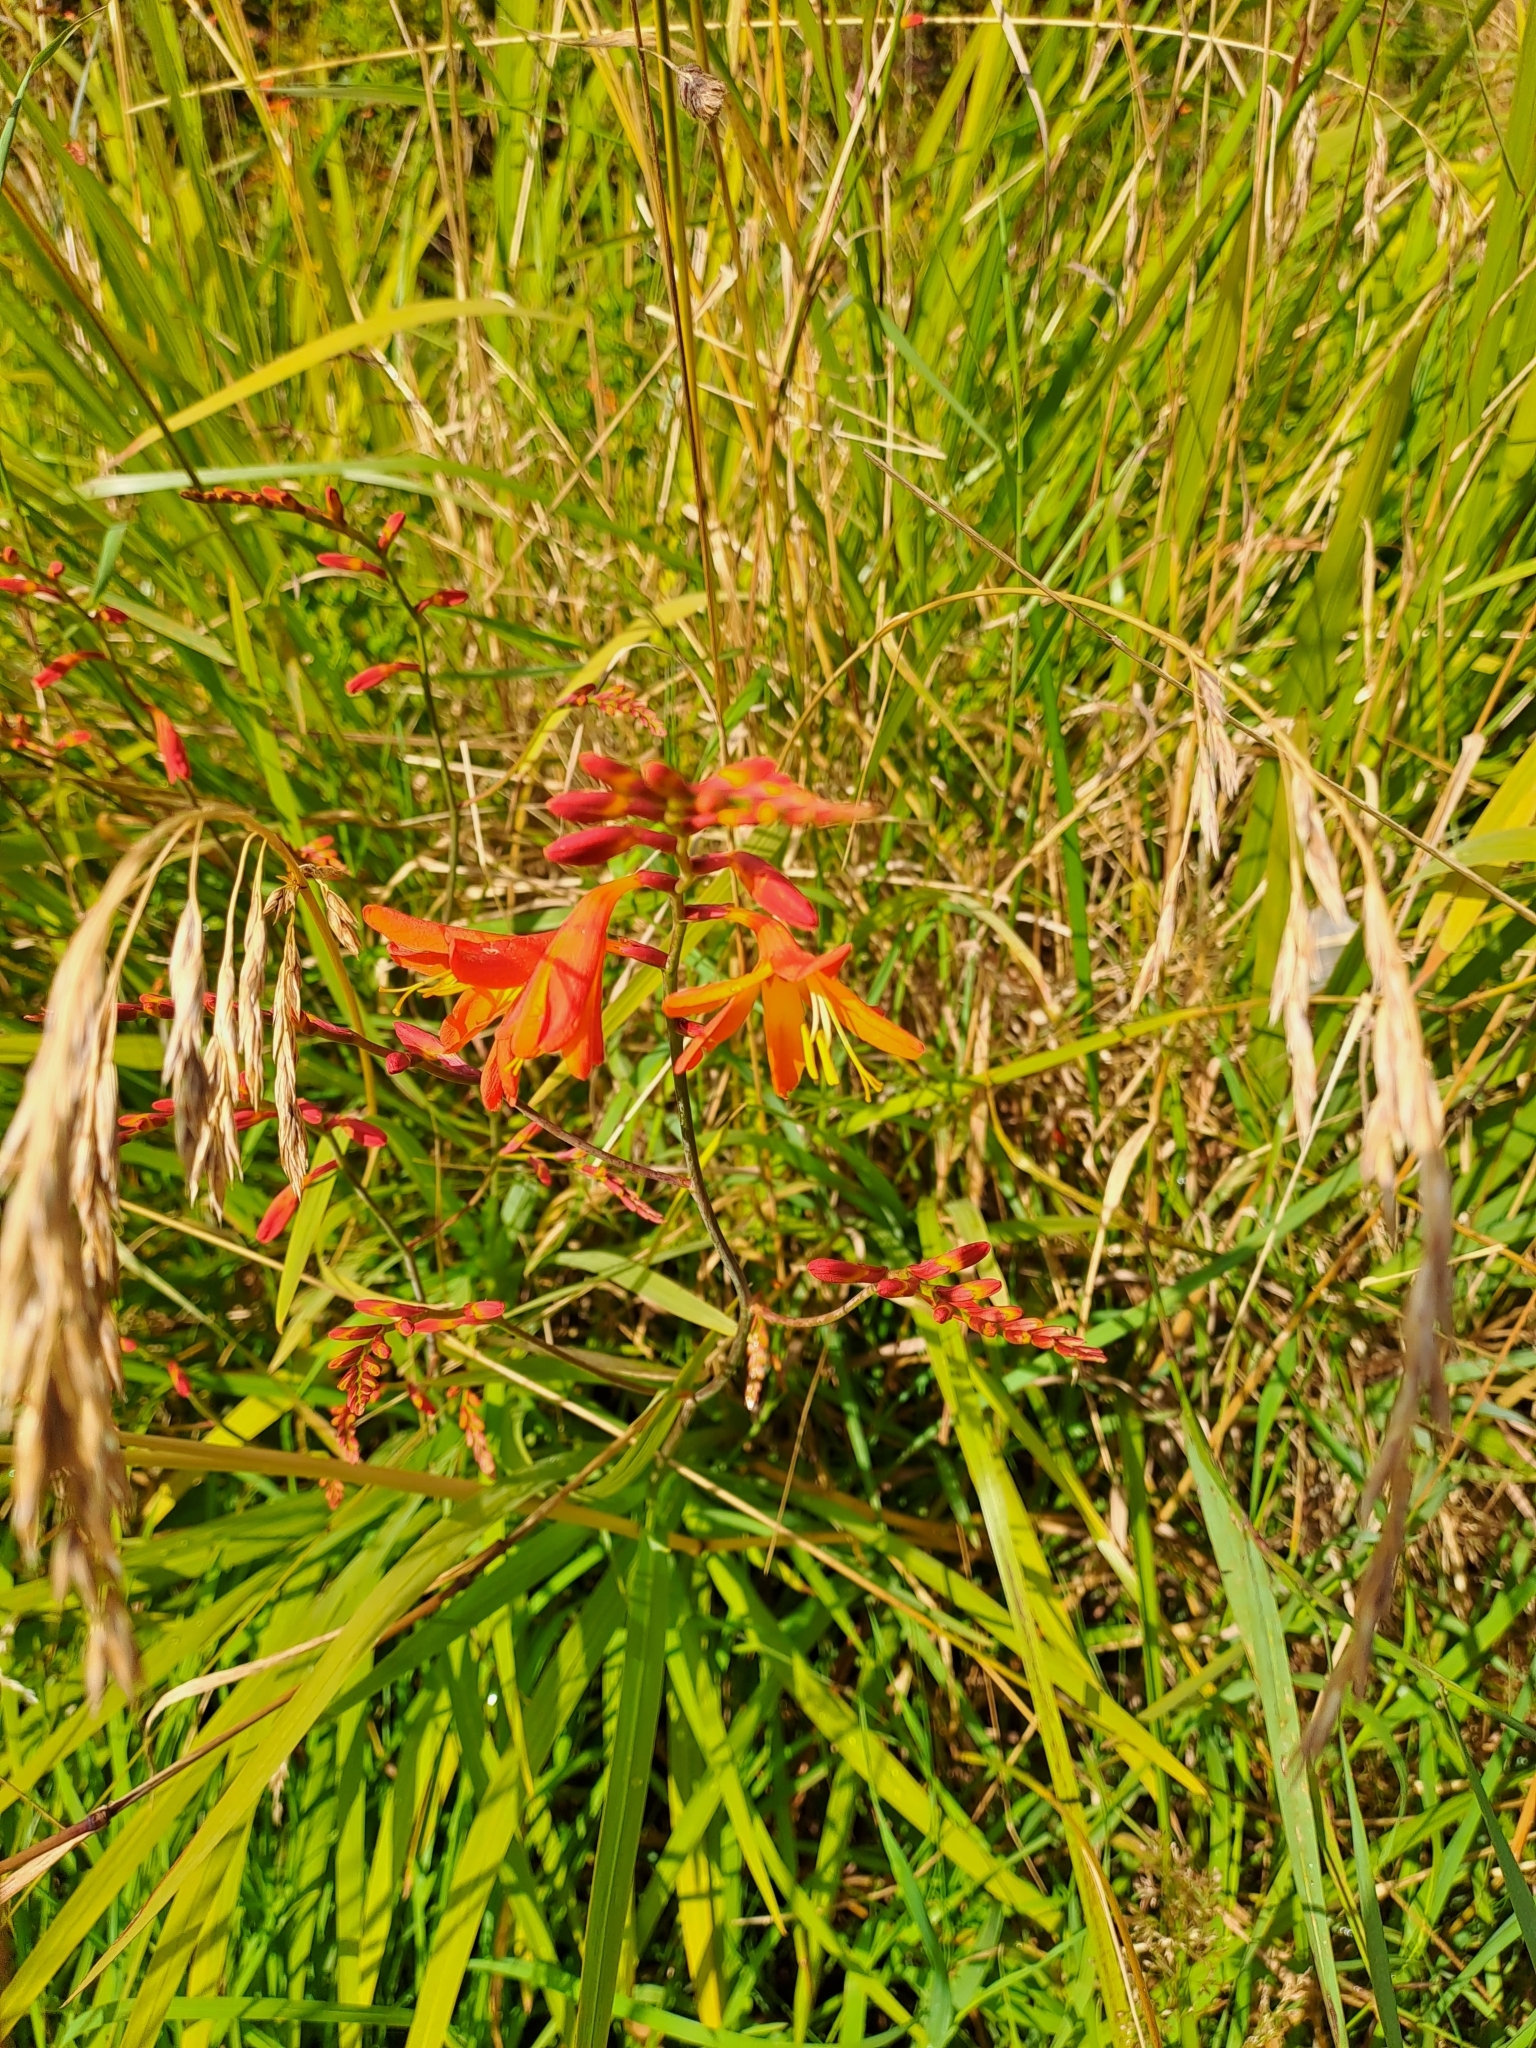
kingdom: Plantae
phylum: Tracheophyta
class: Liliopsida
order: Asparagales
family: Iridaceae
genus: Crocosmia
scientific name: Crocosmia crocosmiiflora
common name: Montbretia
